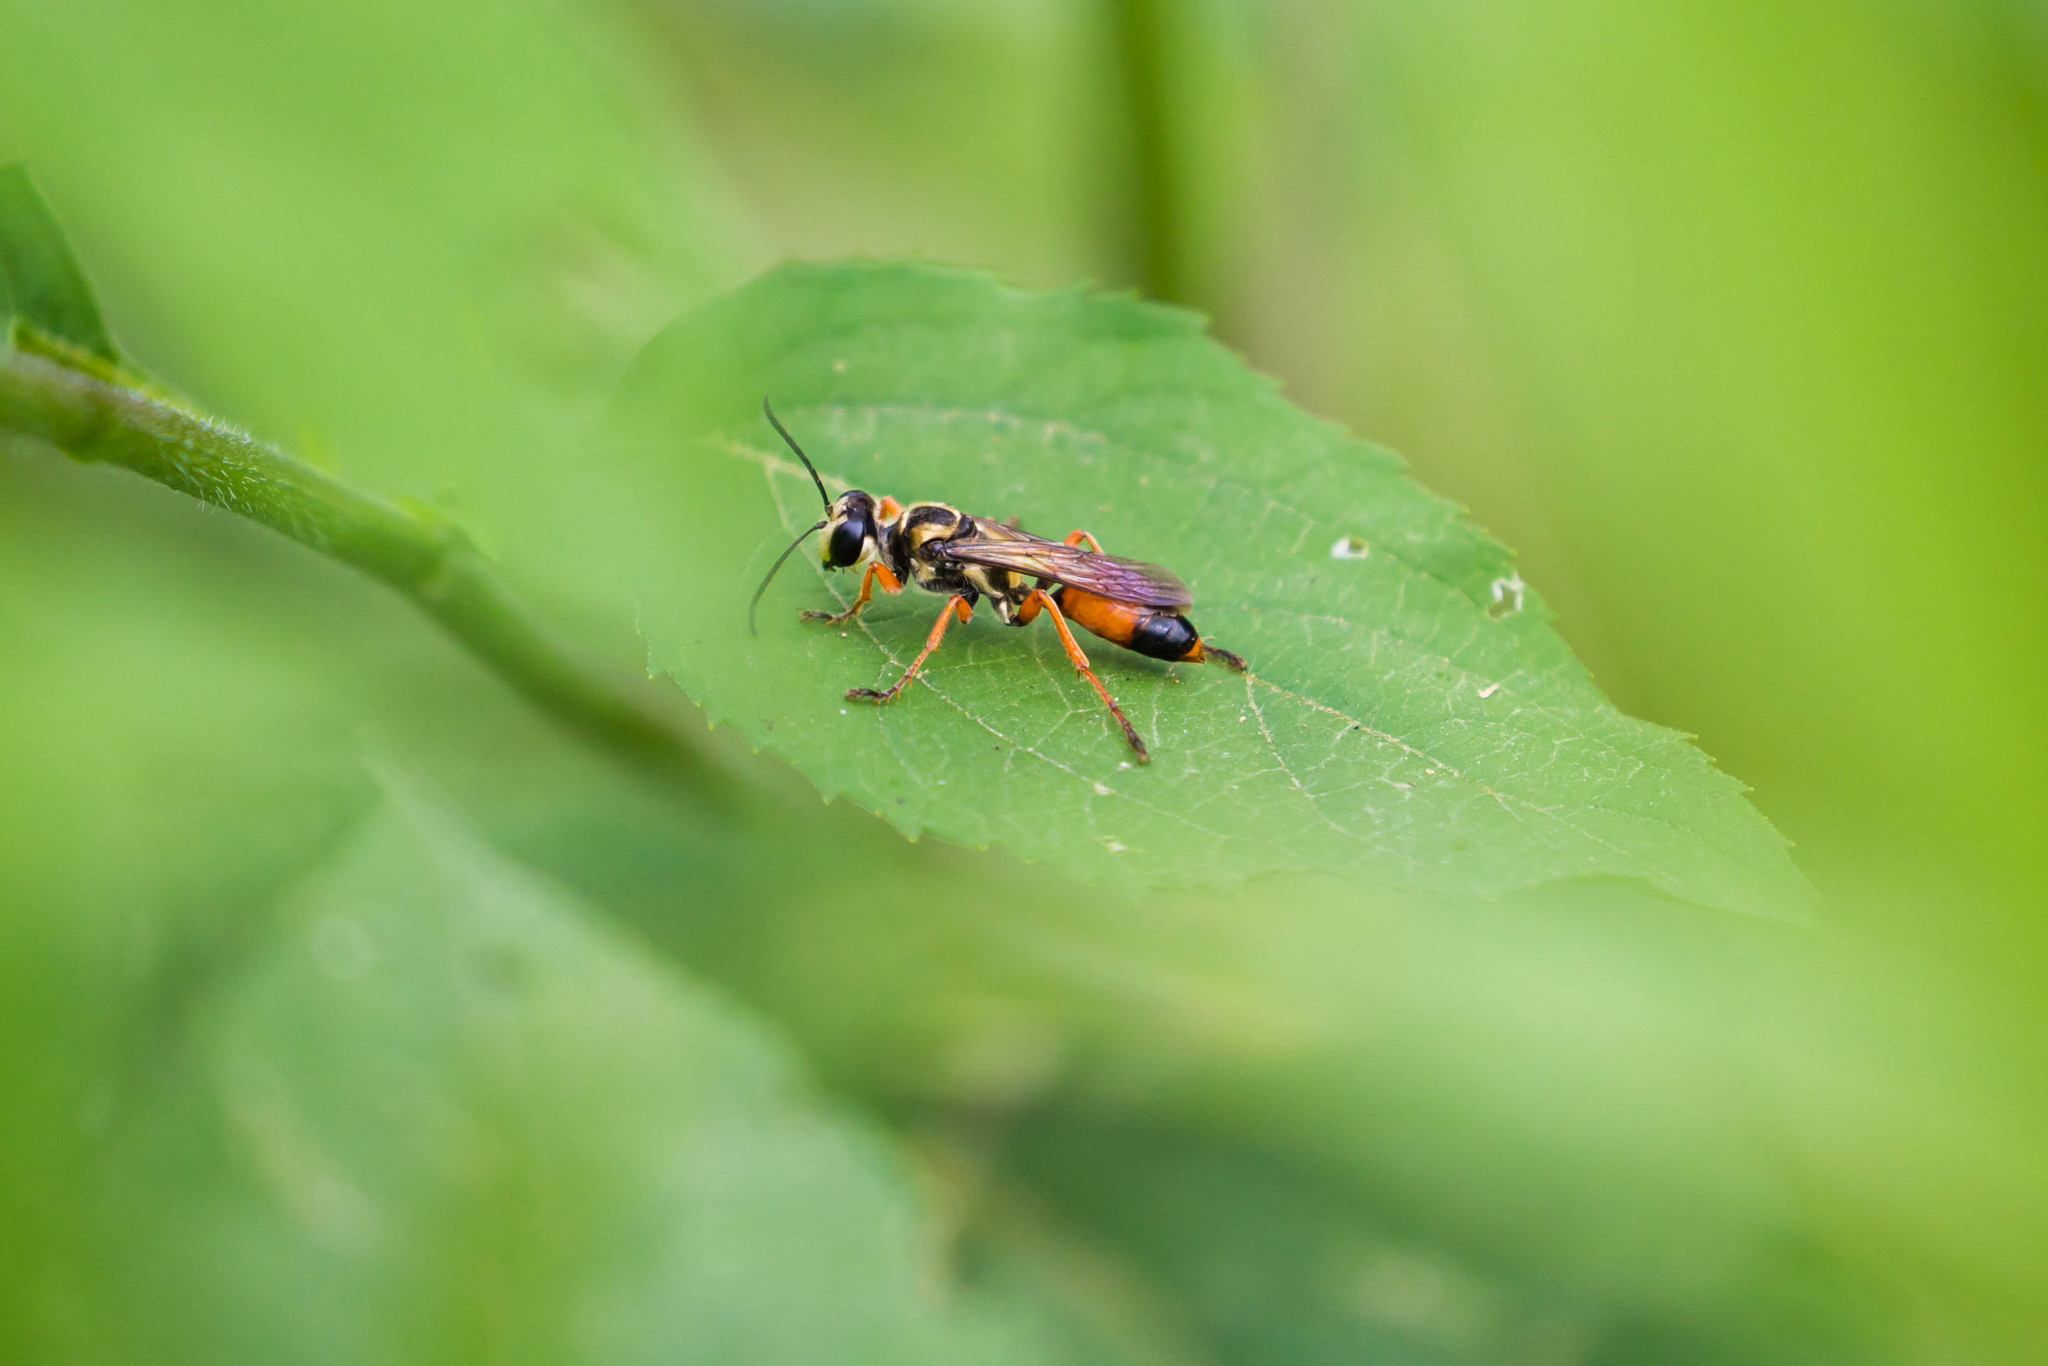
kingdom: Animalia
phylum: Arthropoda
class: Insecta
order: Hymenoptera
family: Sphecidae
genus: Sphex
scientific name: Sphex dorsalis
